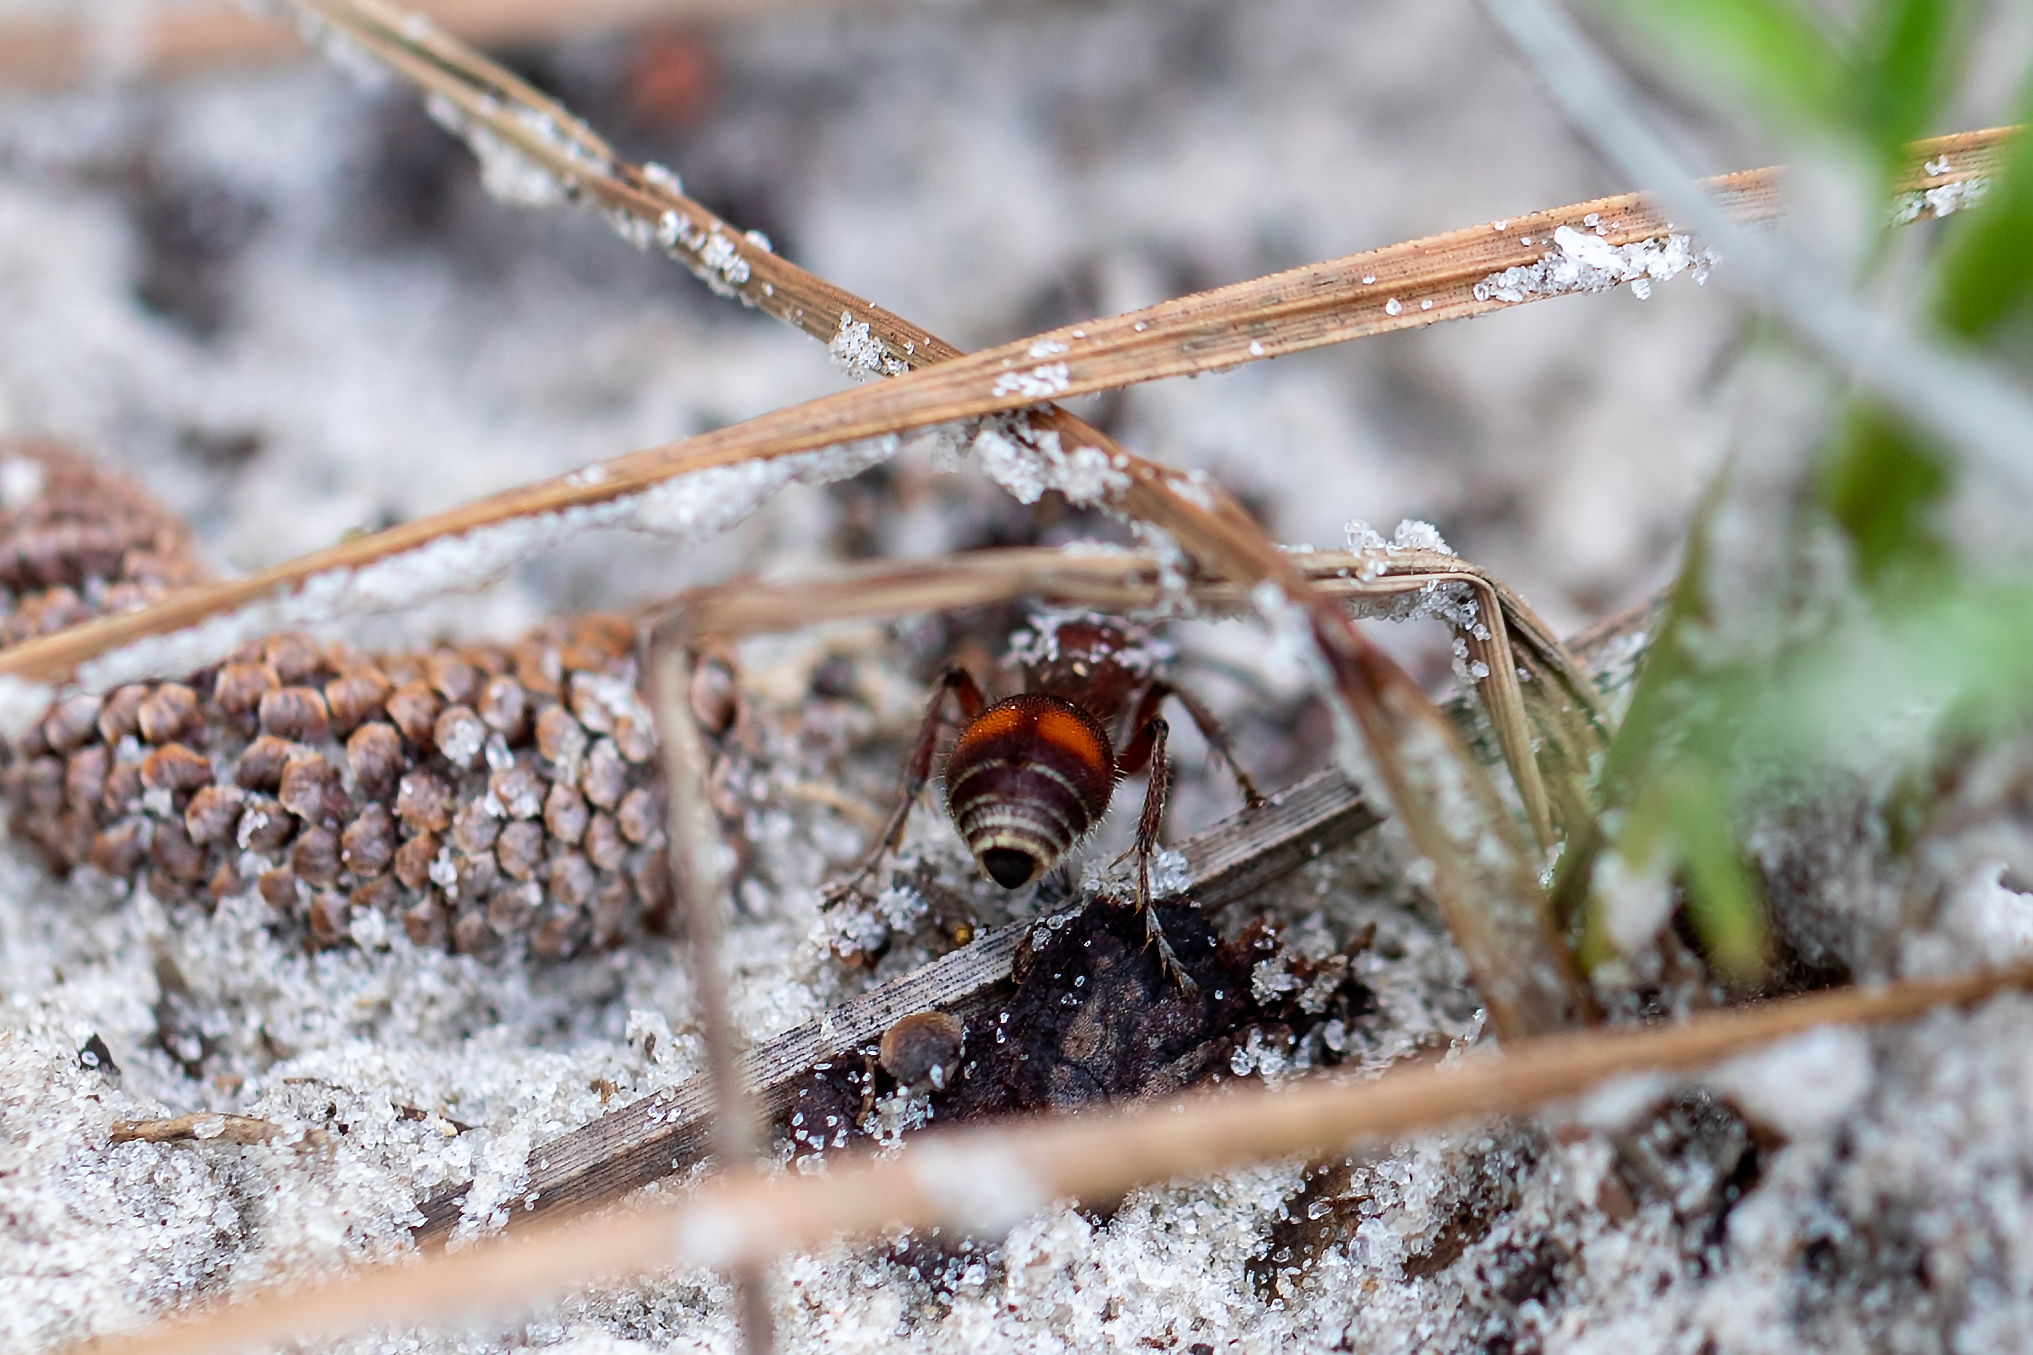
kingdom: Animalia
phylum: Arthropoda
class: Insecta
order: Hymenoptera
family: Mutillidae
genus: Dasymutilla
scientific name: Dasymutilla
